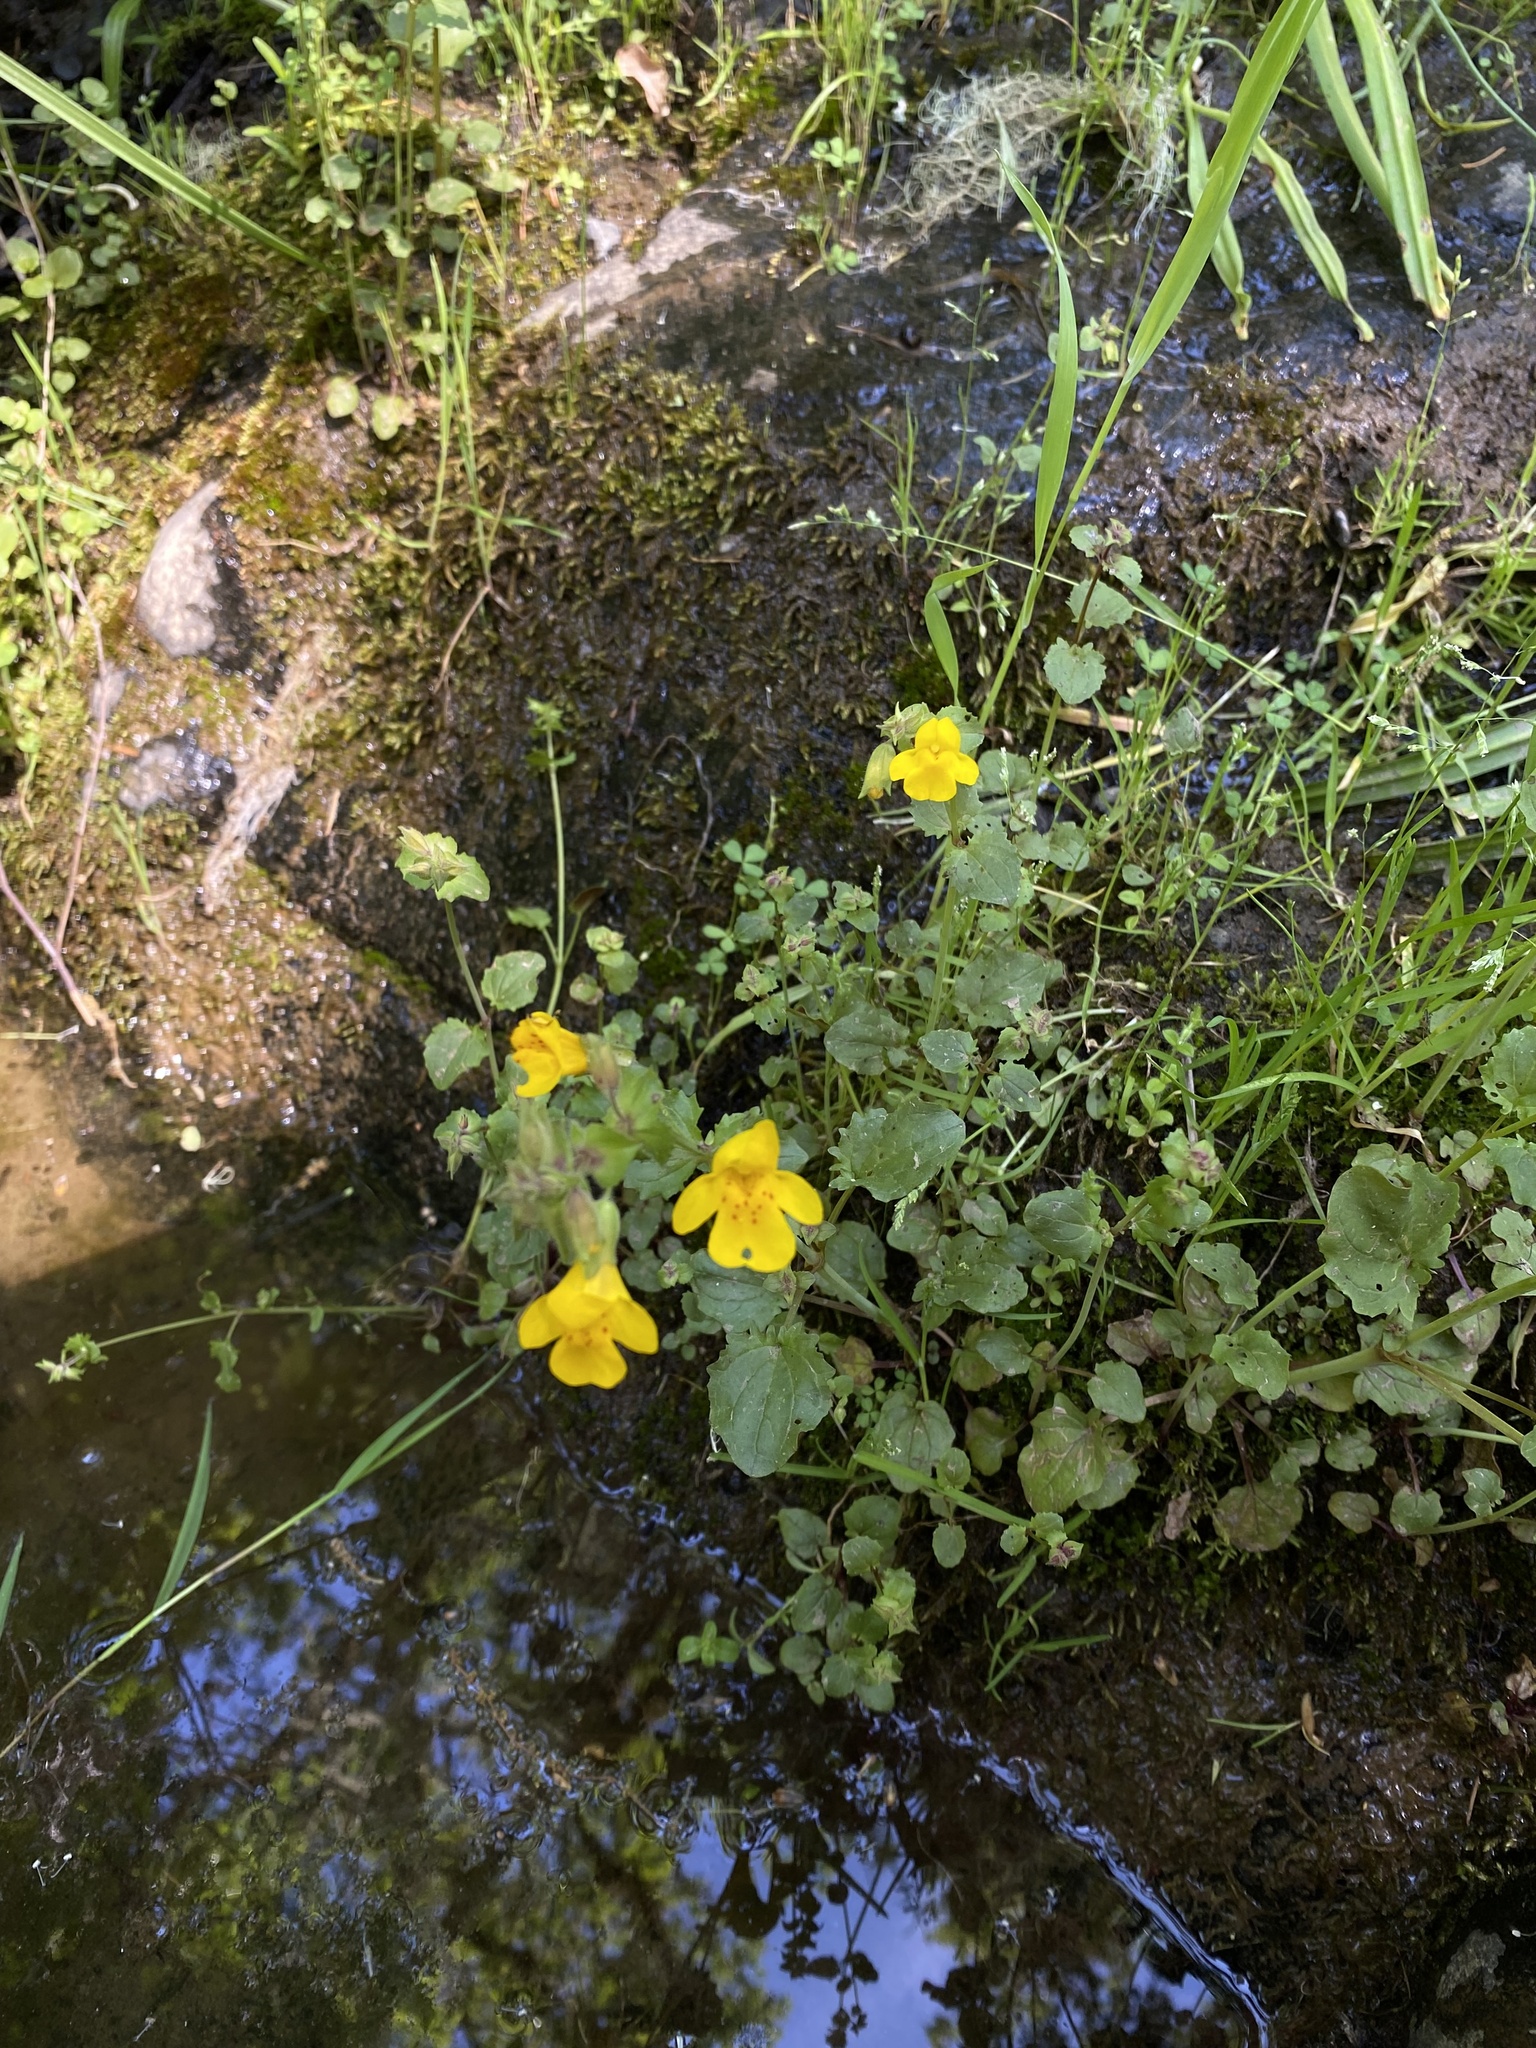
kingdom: Plantae
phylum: Tracheophyta
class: Magnoliopsida
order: Lamiales
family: Phrymaceae
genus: Erythranthe
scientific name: Erythranthe guttata
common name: Monkeyflower
